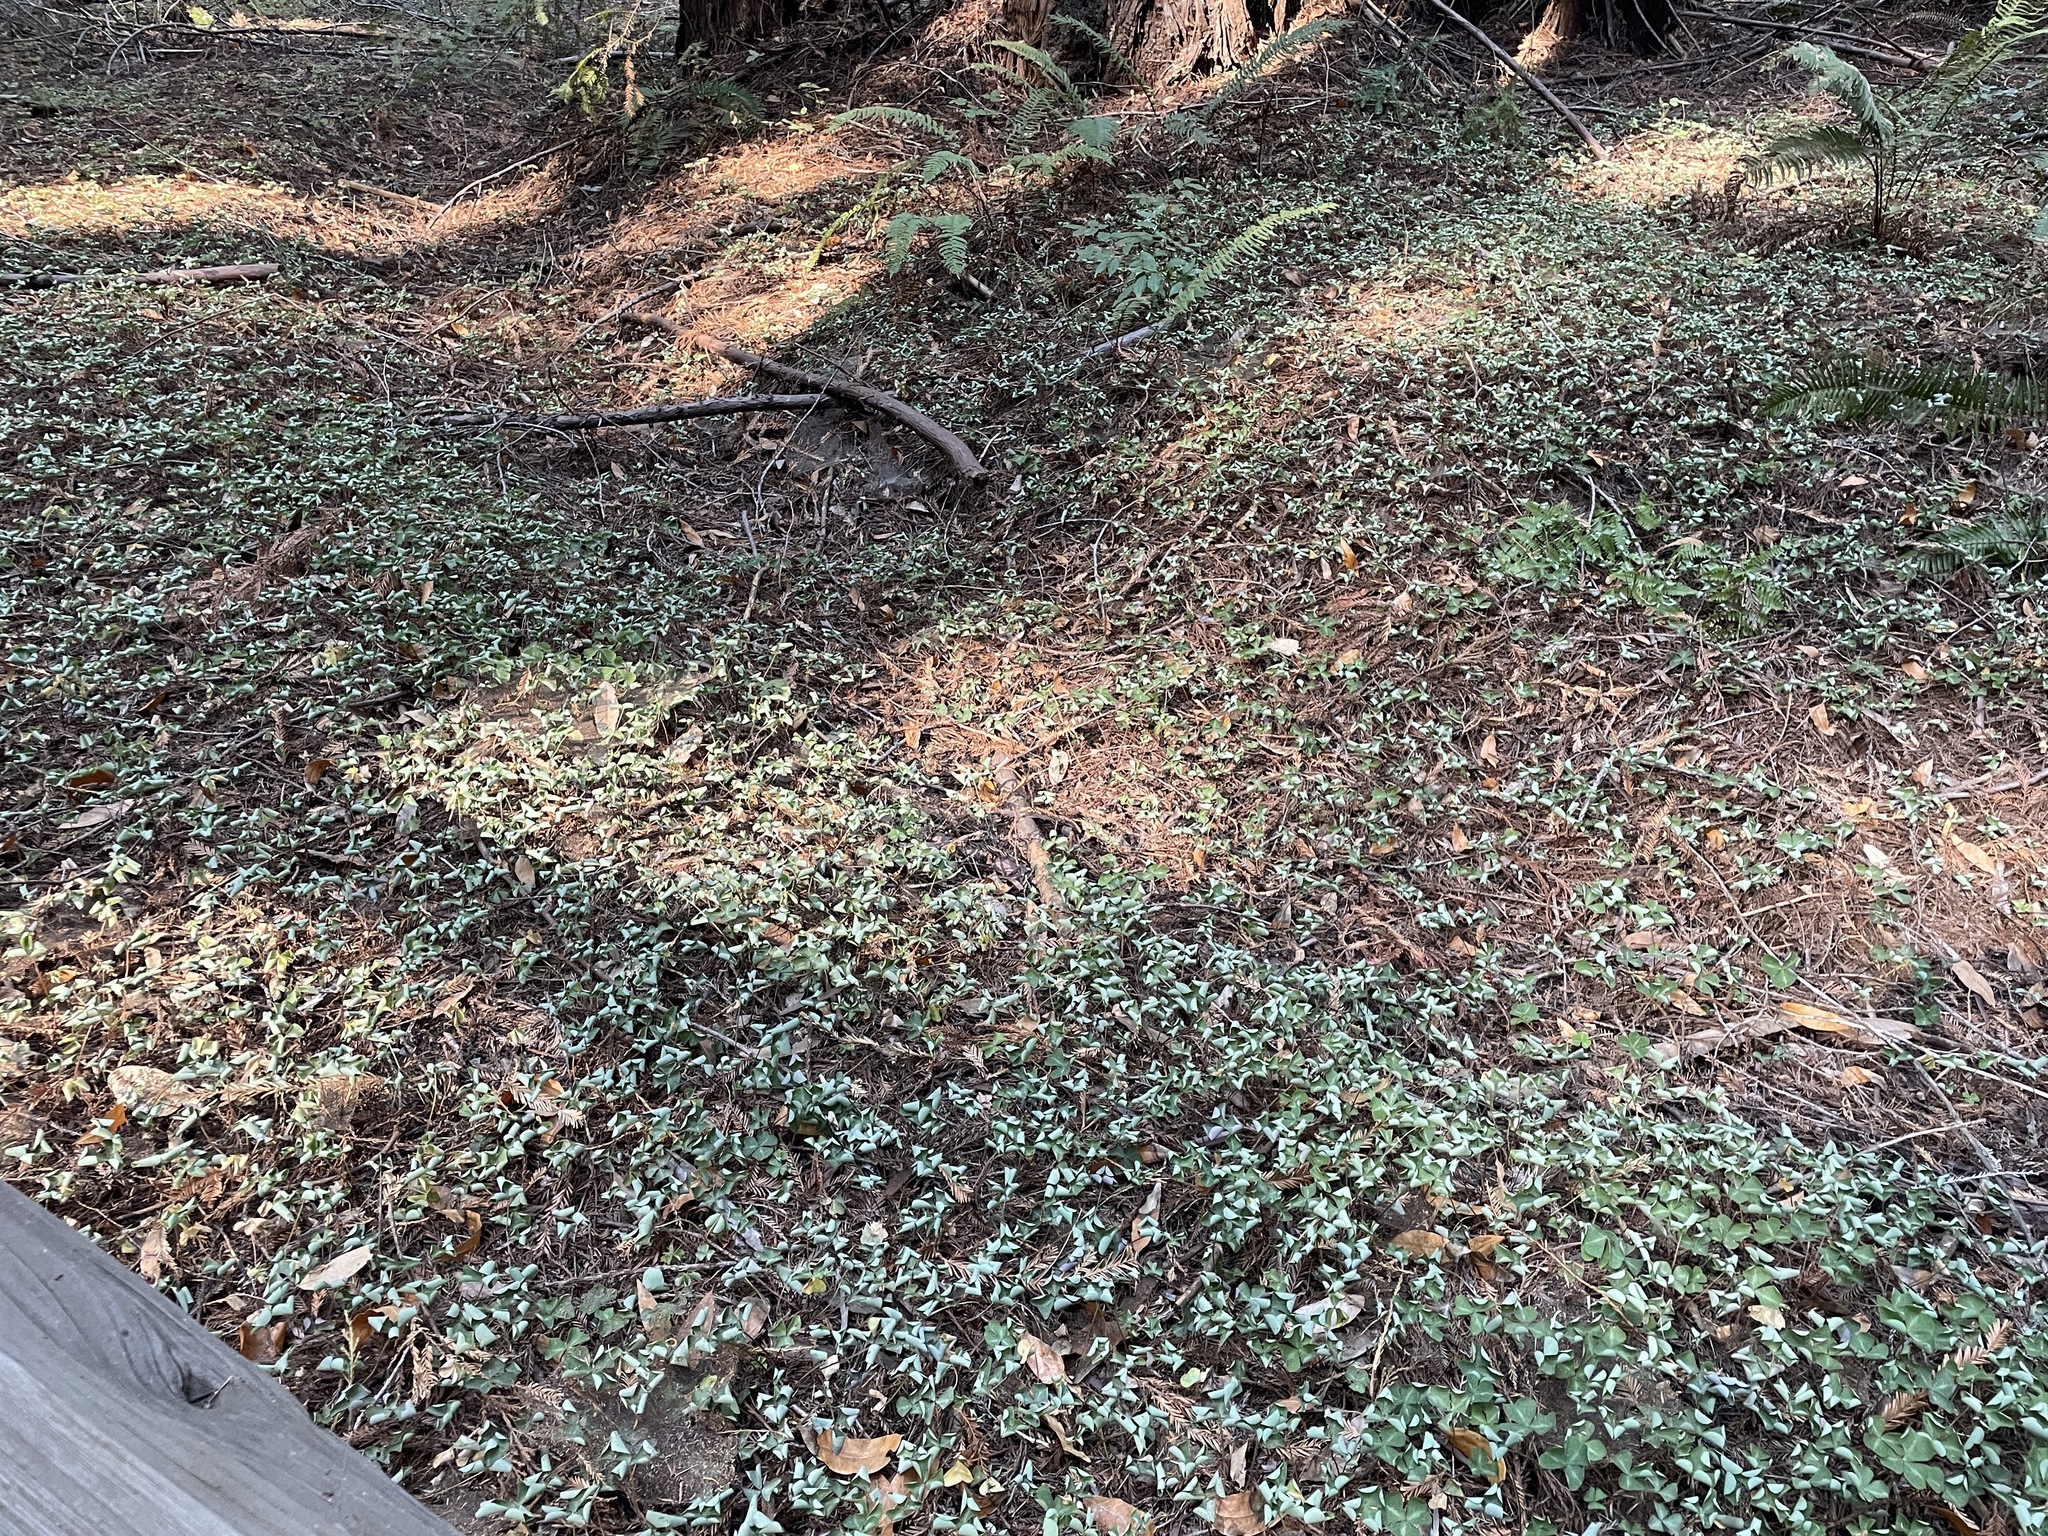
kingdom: Plantae
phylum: Tracheophyta
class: Magnoliopsida
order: Oxalidales
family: Oxalidaceae
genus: Oxalis
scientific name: Oxalis oregana
